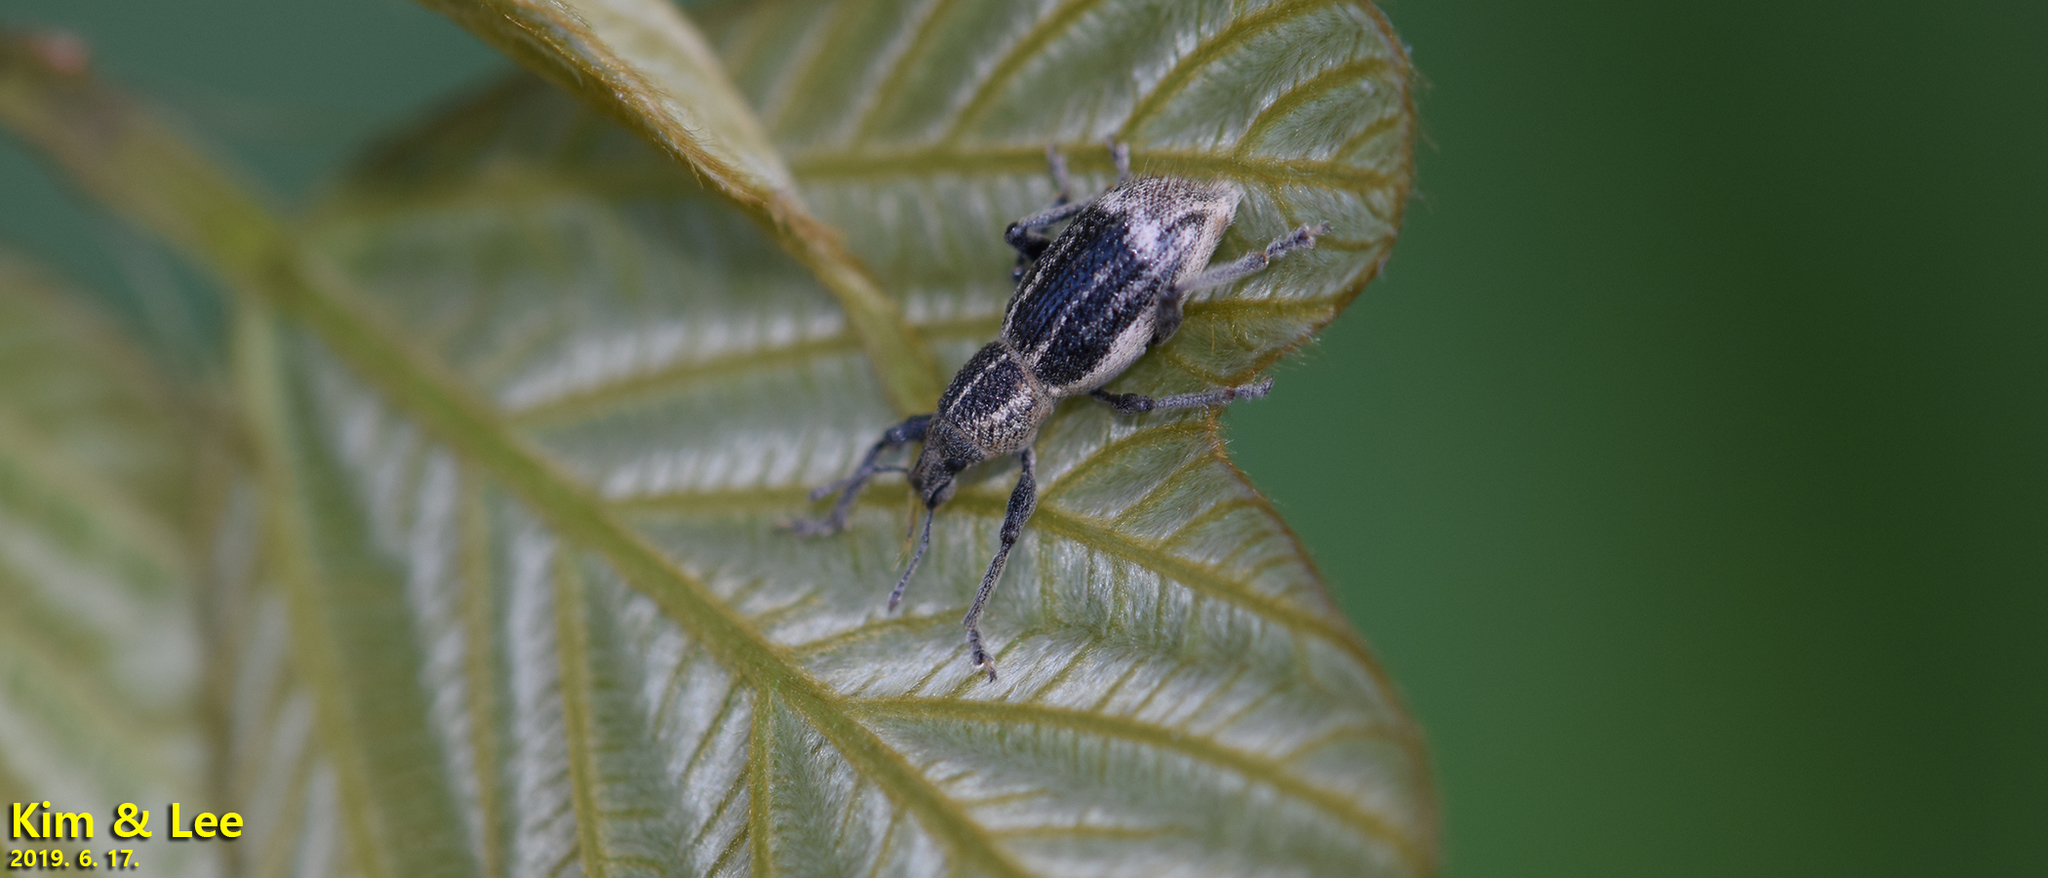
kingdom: Animalia
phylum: Arthropoda
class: Insecta
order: Coleoptera
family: Curculionidae
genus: Enaptorhinus
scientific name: Enaptorhinus granulatus
